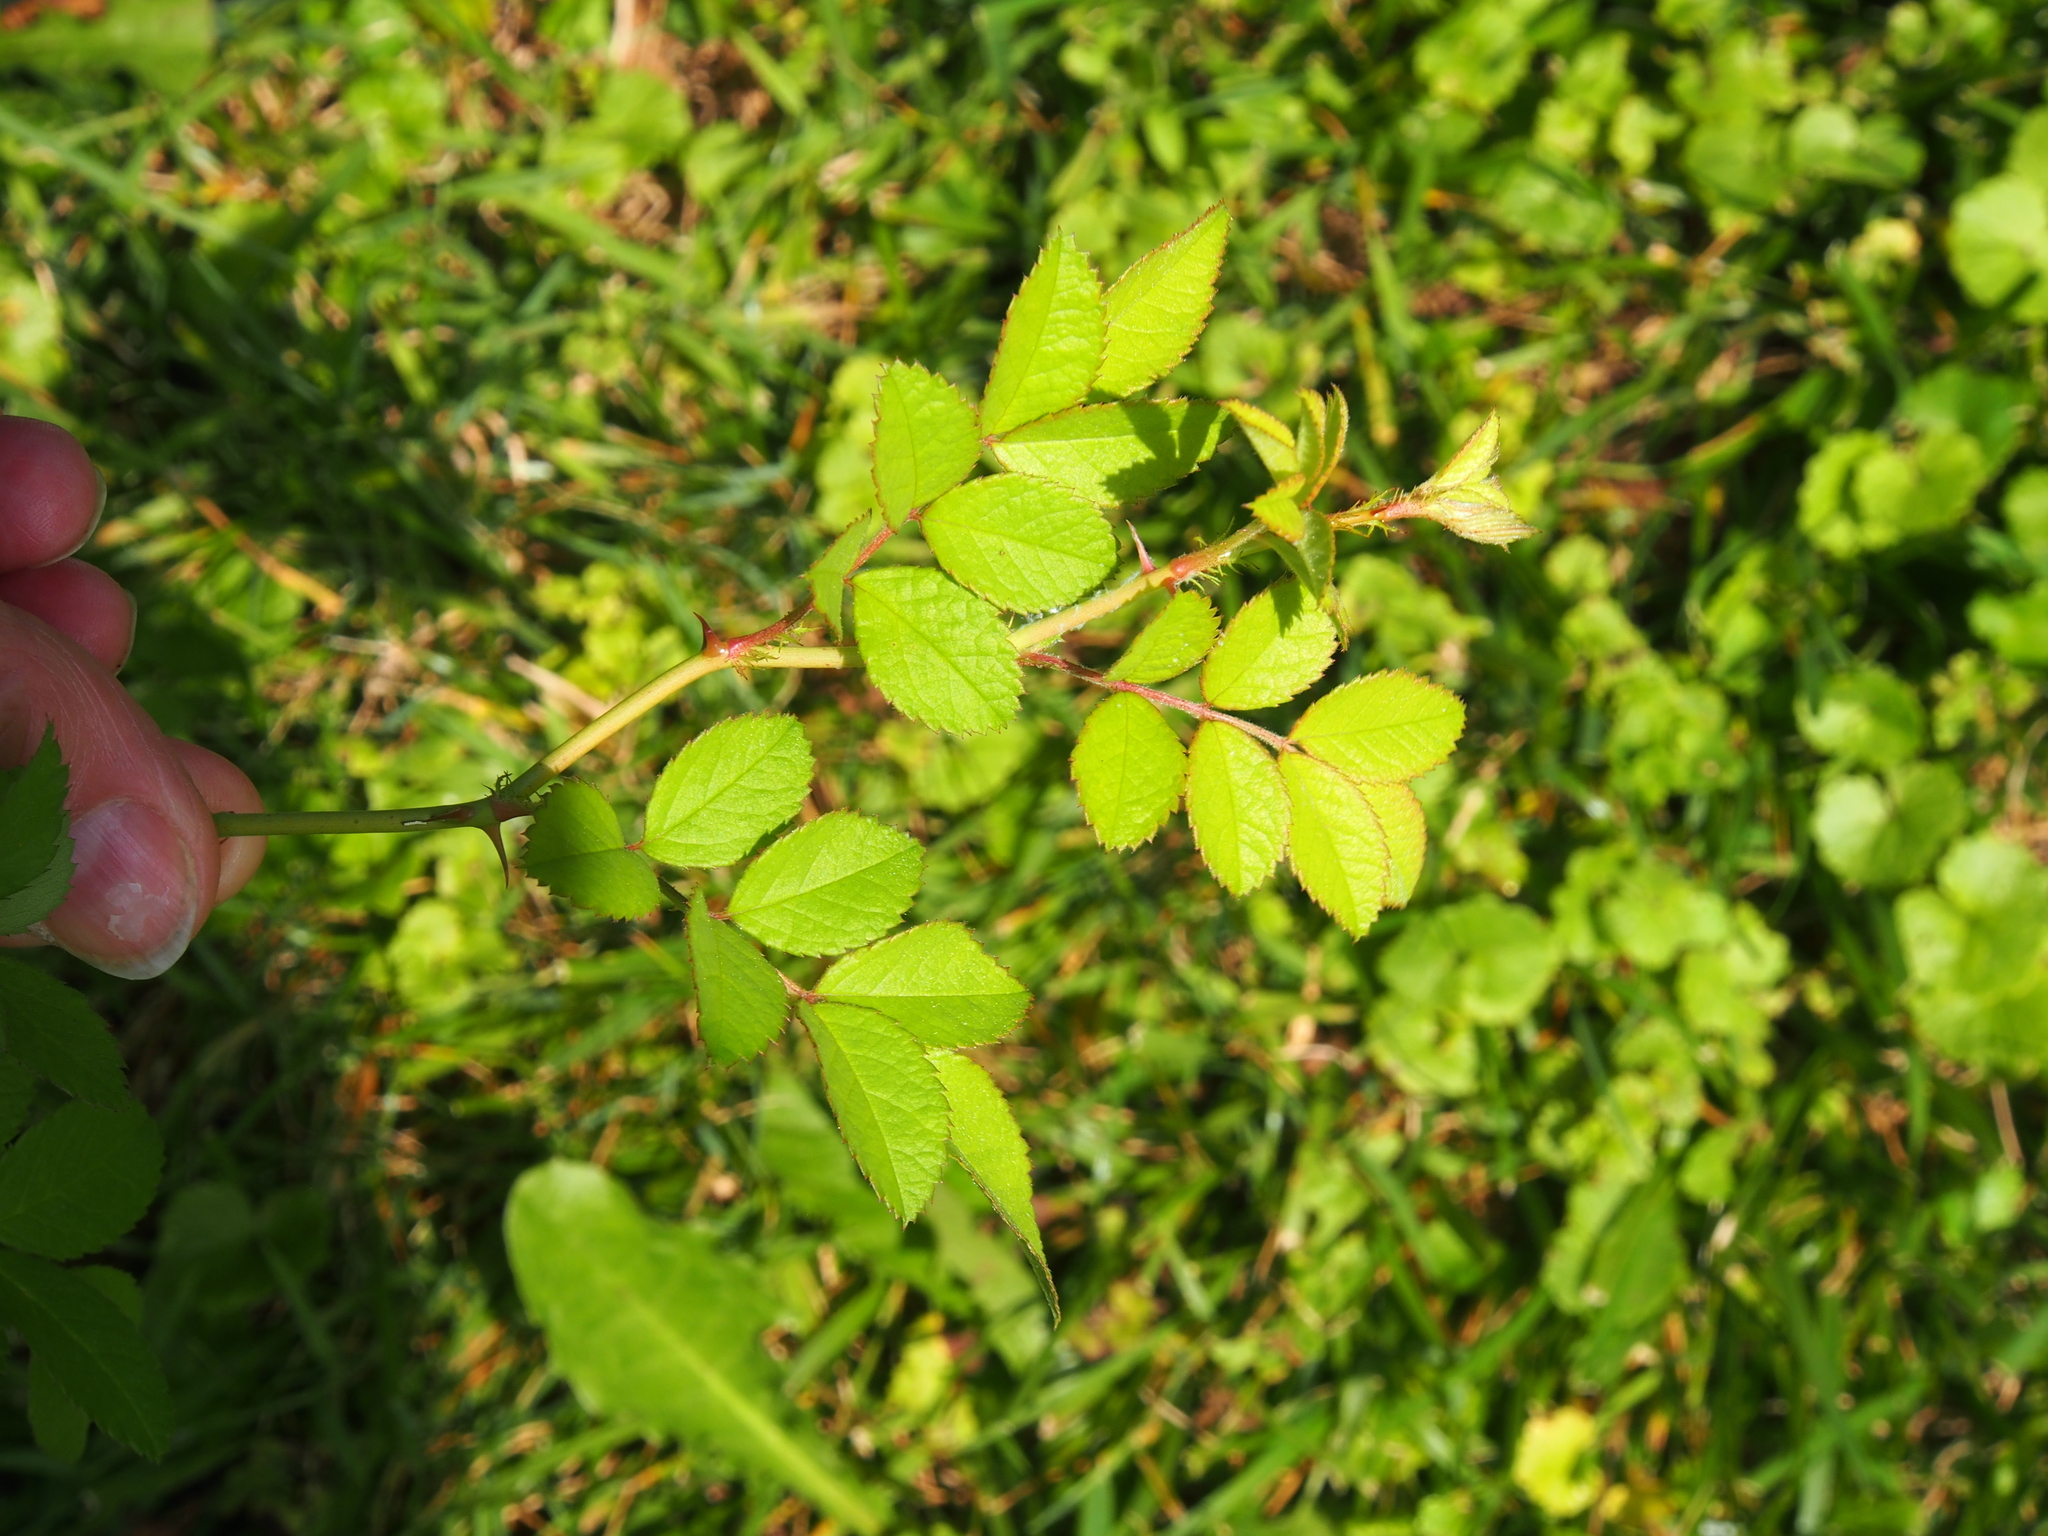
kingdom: Plantae
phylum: Tracheophyta
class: Magnoliopsida
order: Rosales
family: Rosaceae
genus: Rosa
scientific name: Rosa multiflora
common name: Multiflora rose
